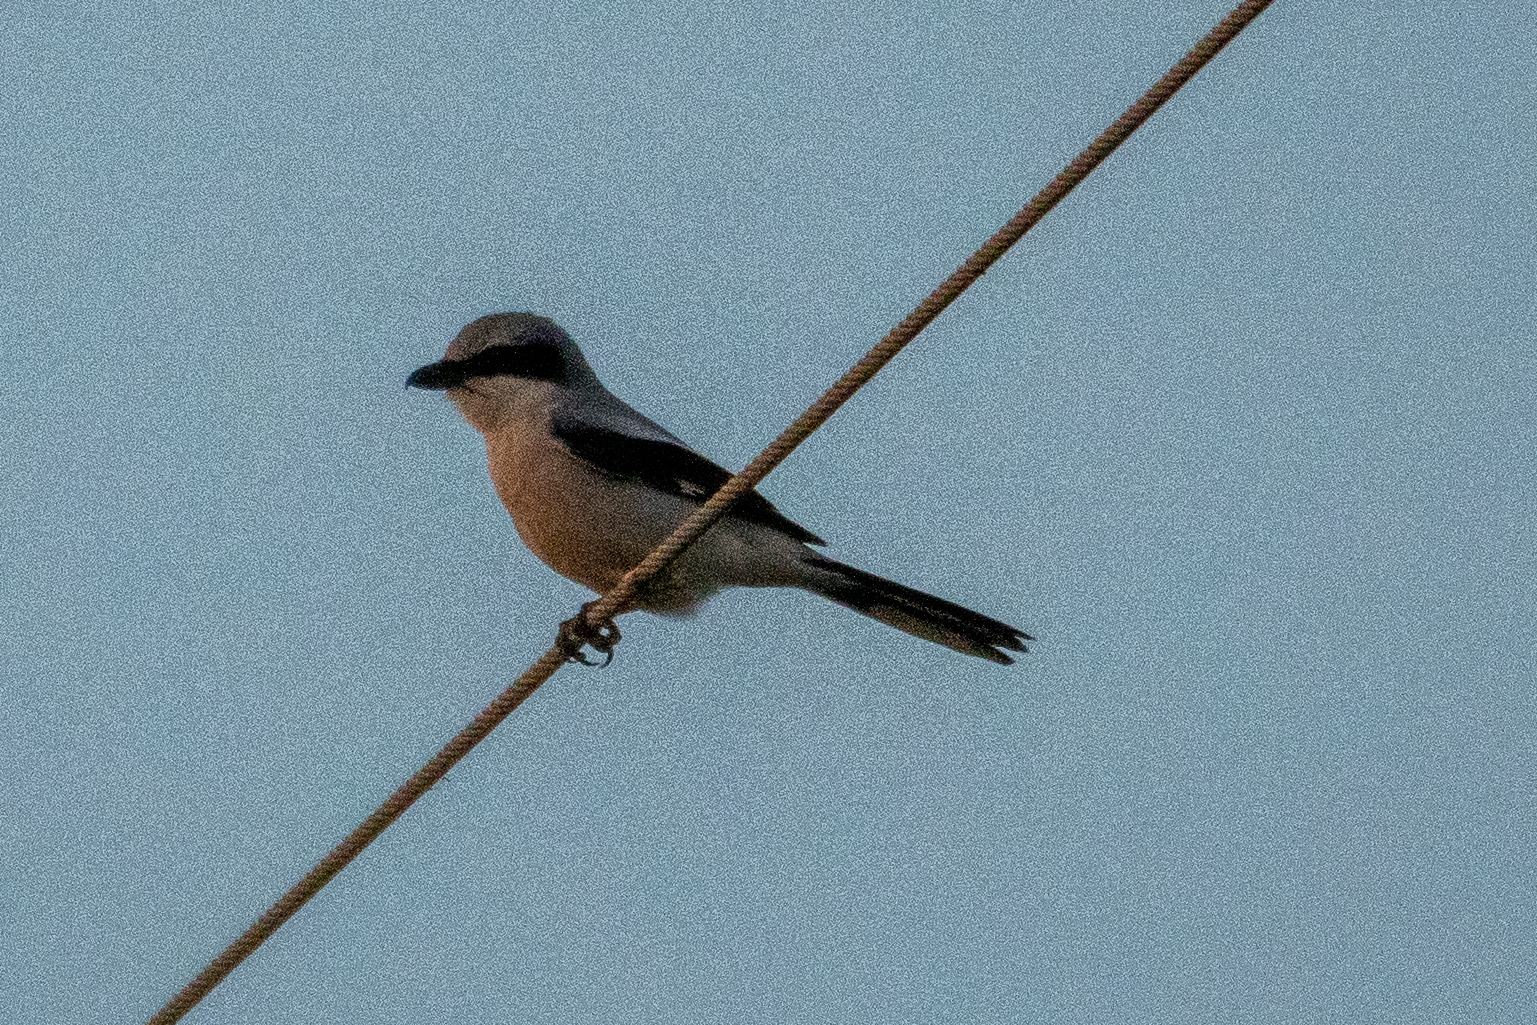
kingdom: Animalia
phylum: Chordata
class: Aves
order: Passeriformes
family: Laniidae
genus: Lanius
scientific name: Lanius ludovicianus
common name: Loggerhead shrike
